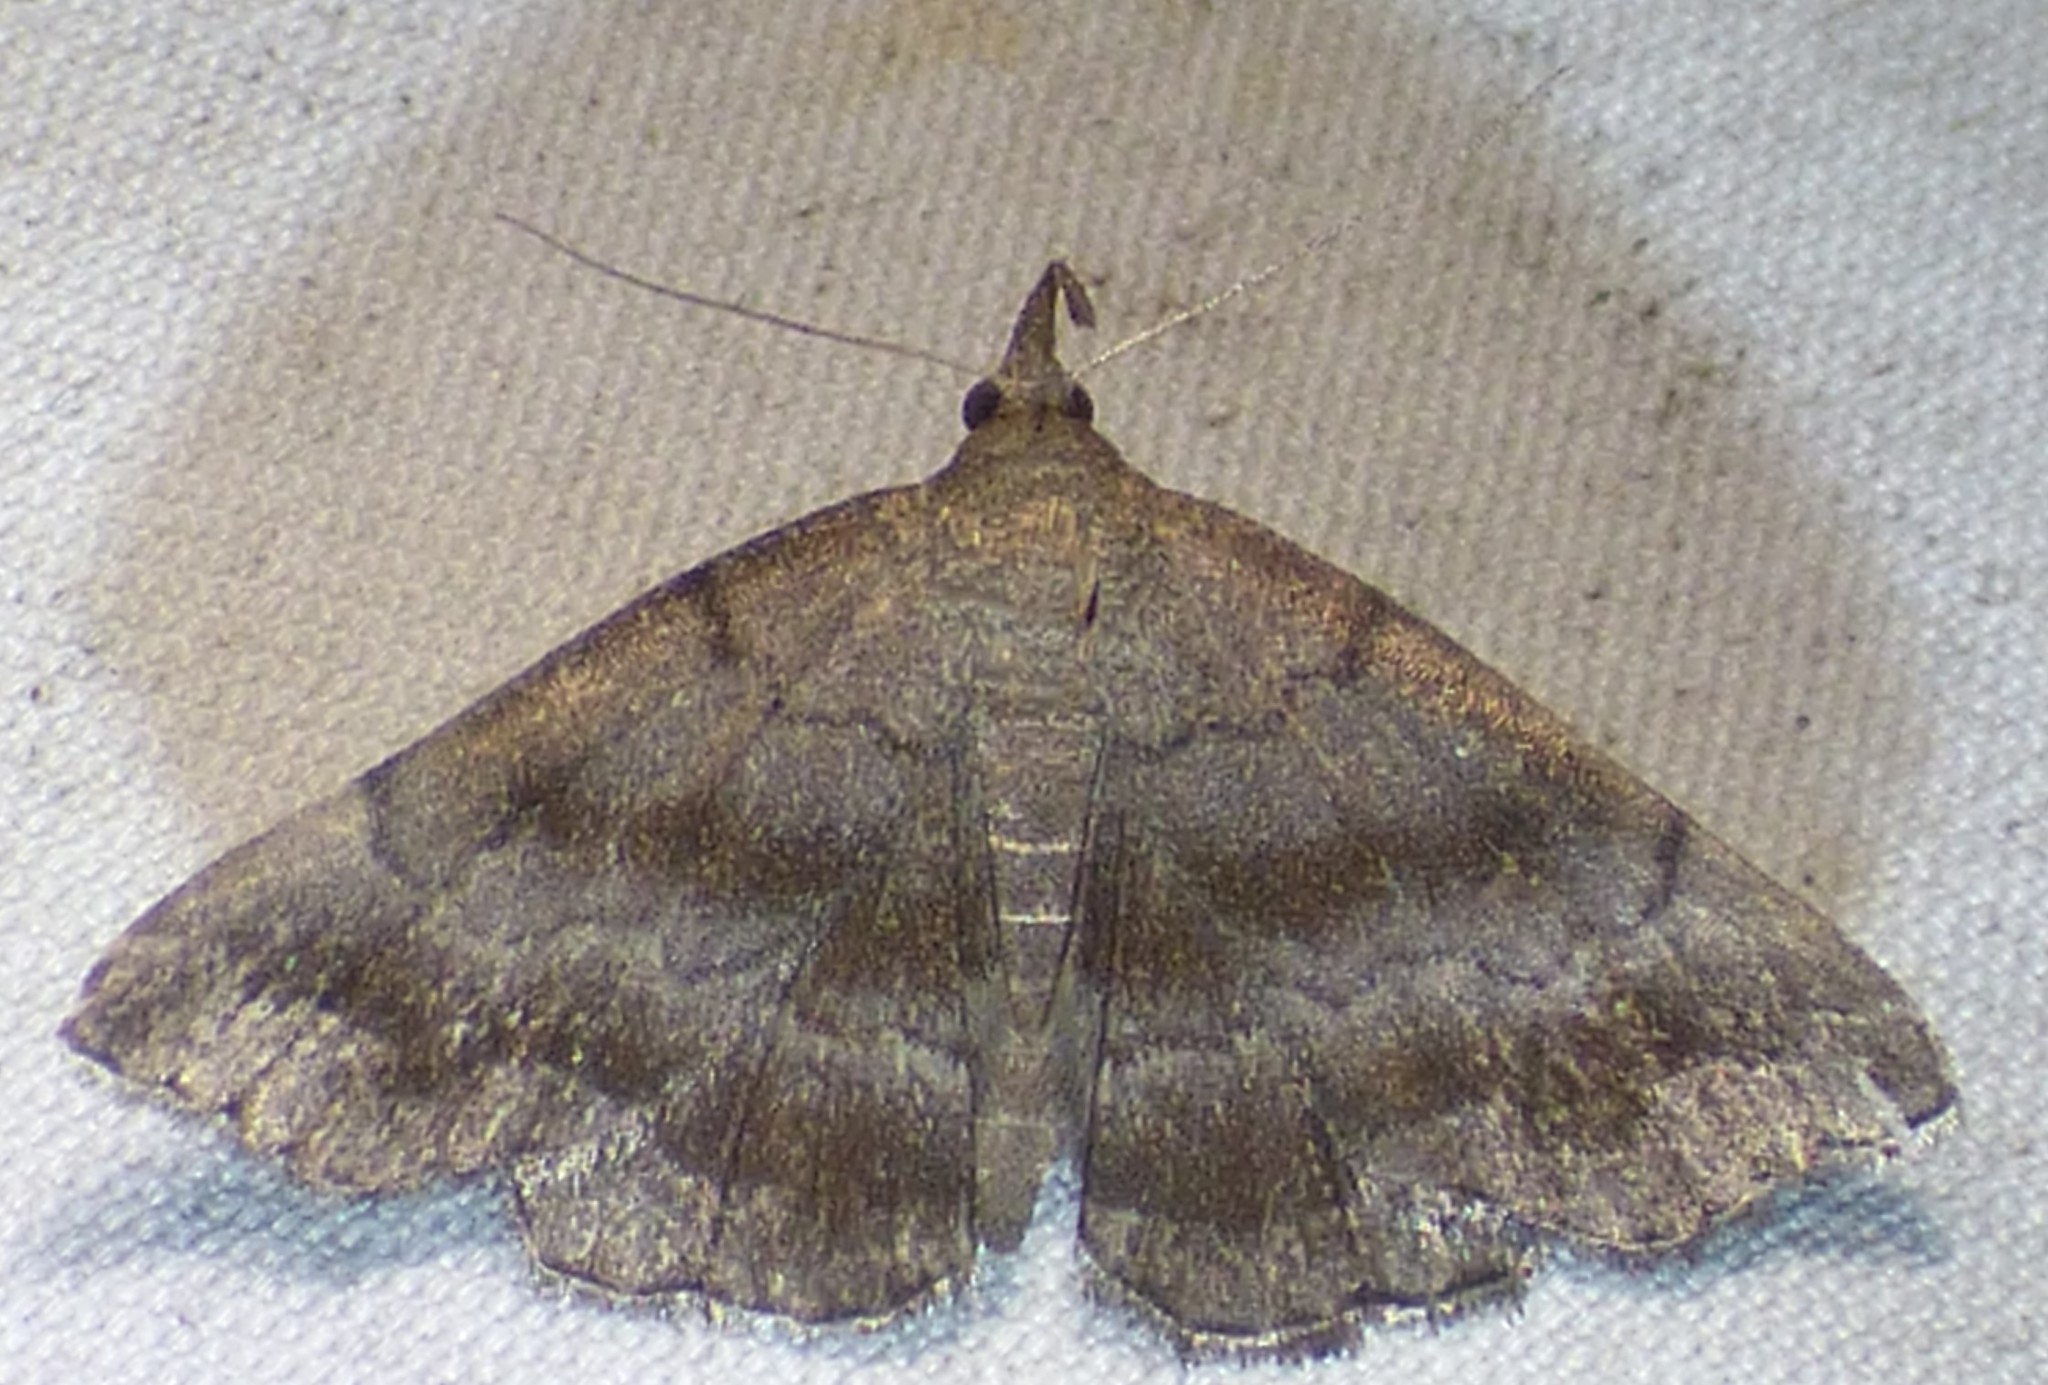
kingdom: Animalia
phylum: Arthropoda
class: Insecta
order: Lepidoptera
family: Erebidae
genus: Phalaenostola
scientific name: Phalaenostola larentioides
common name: Black-banded owlet
